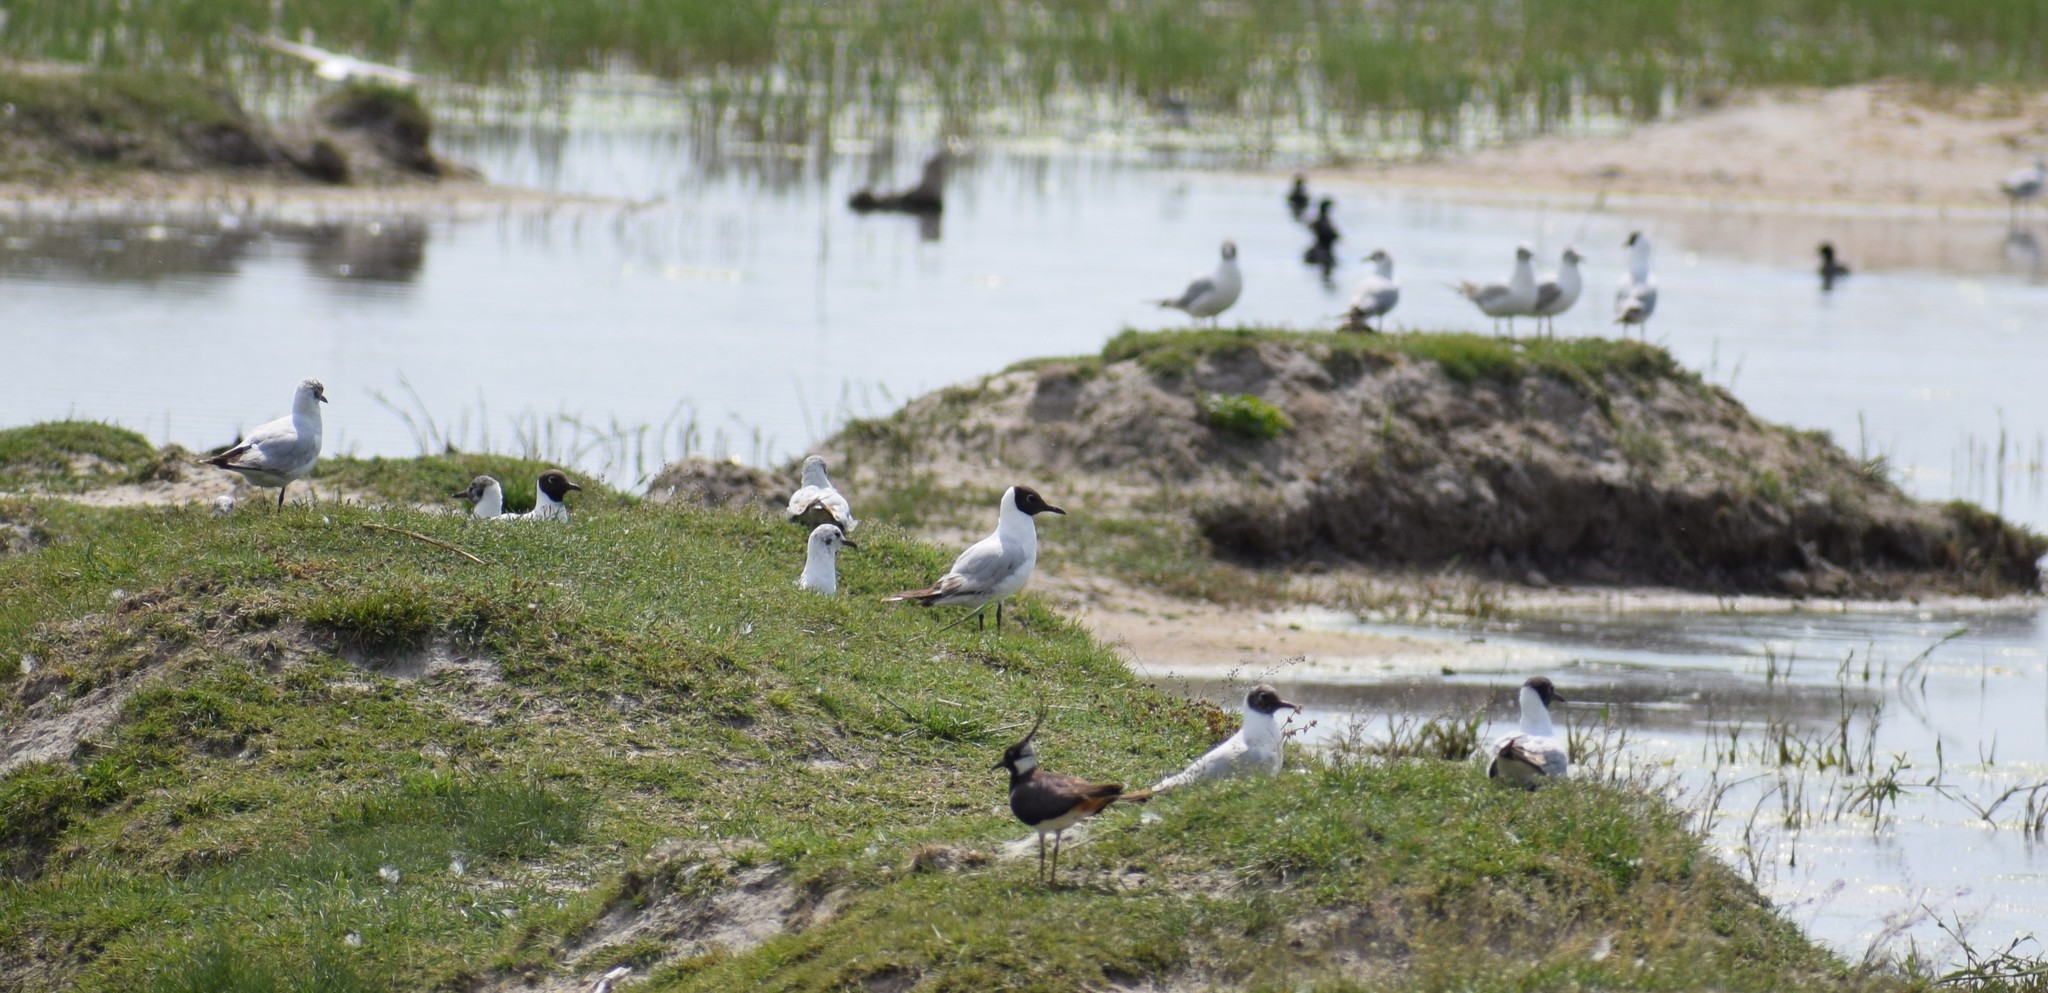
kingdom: Animalia
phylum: Chordata
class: Aves
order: Charadriiformes
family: Laridae
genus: Chroicocephalus
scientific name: Chroicocephalus ridibundus
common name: Black-headed gull
